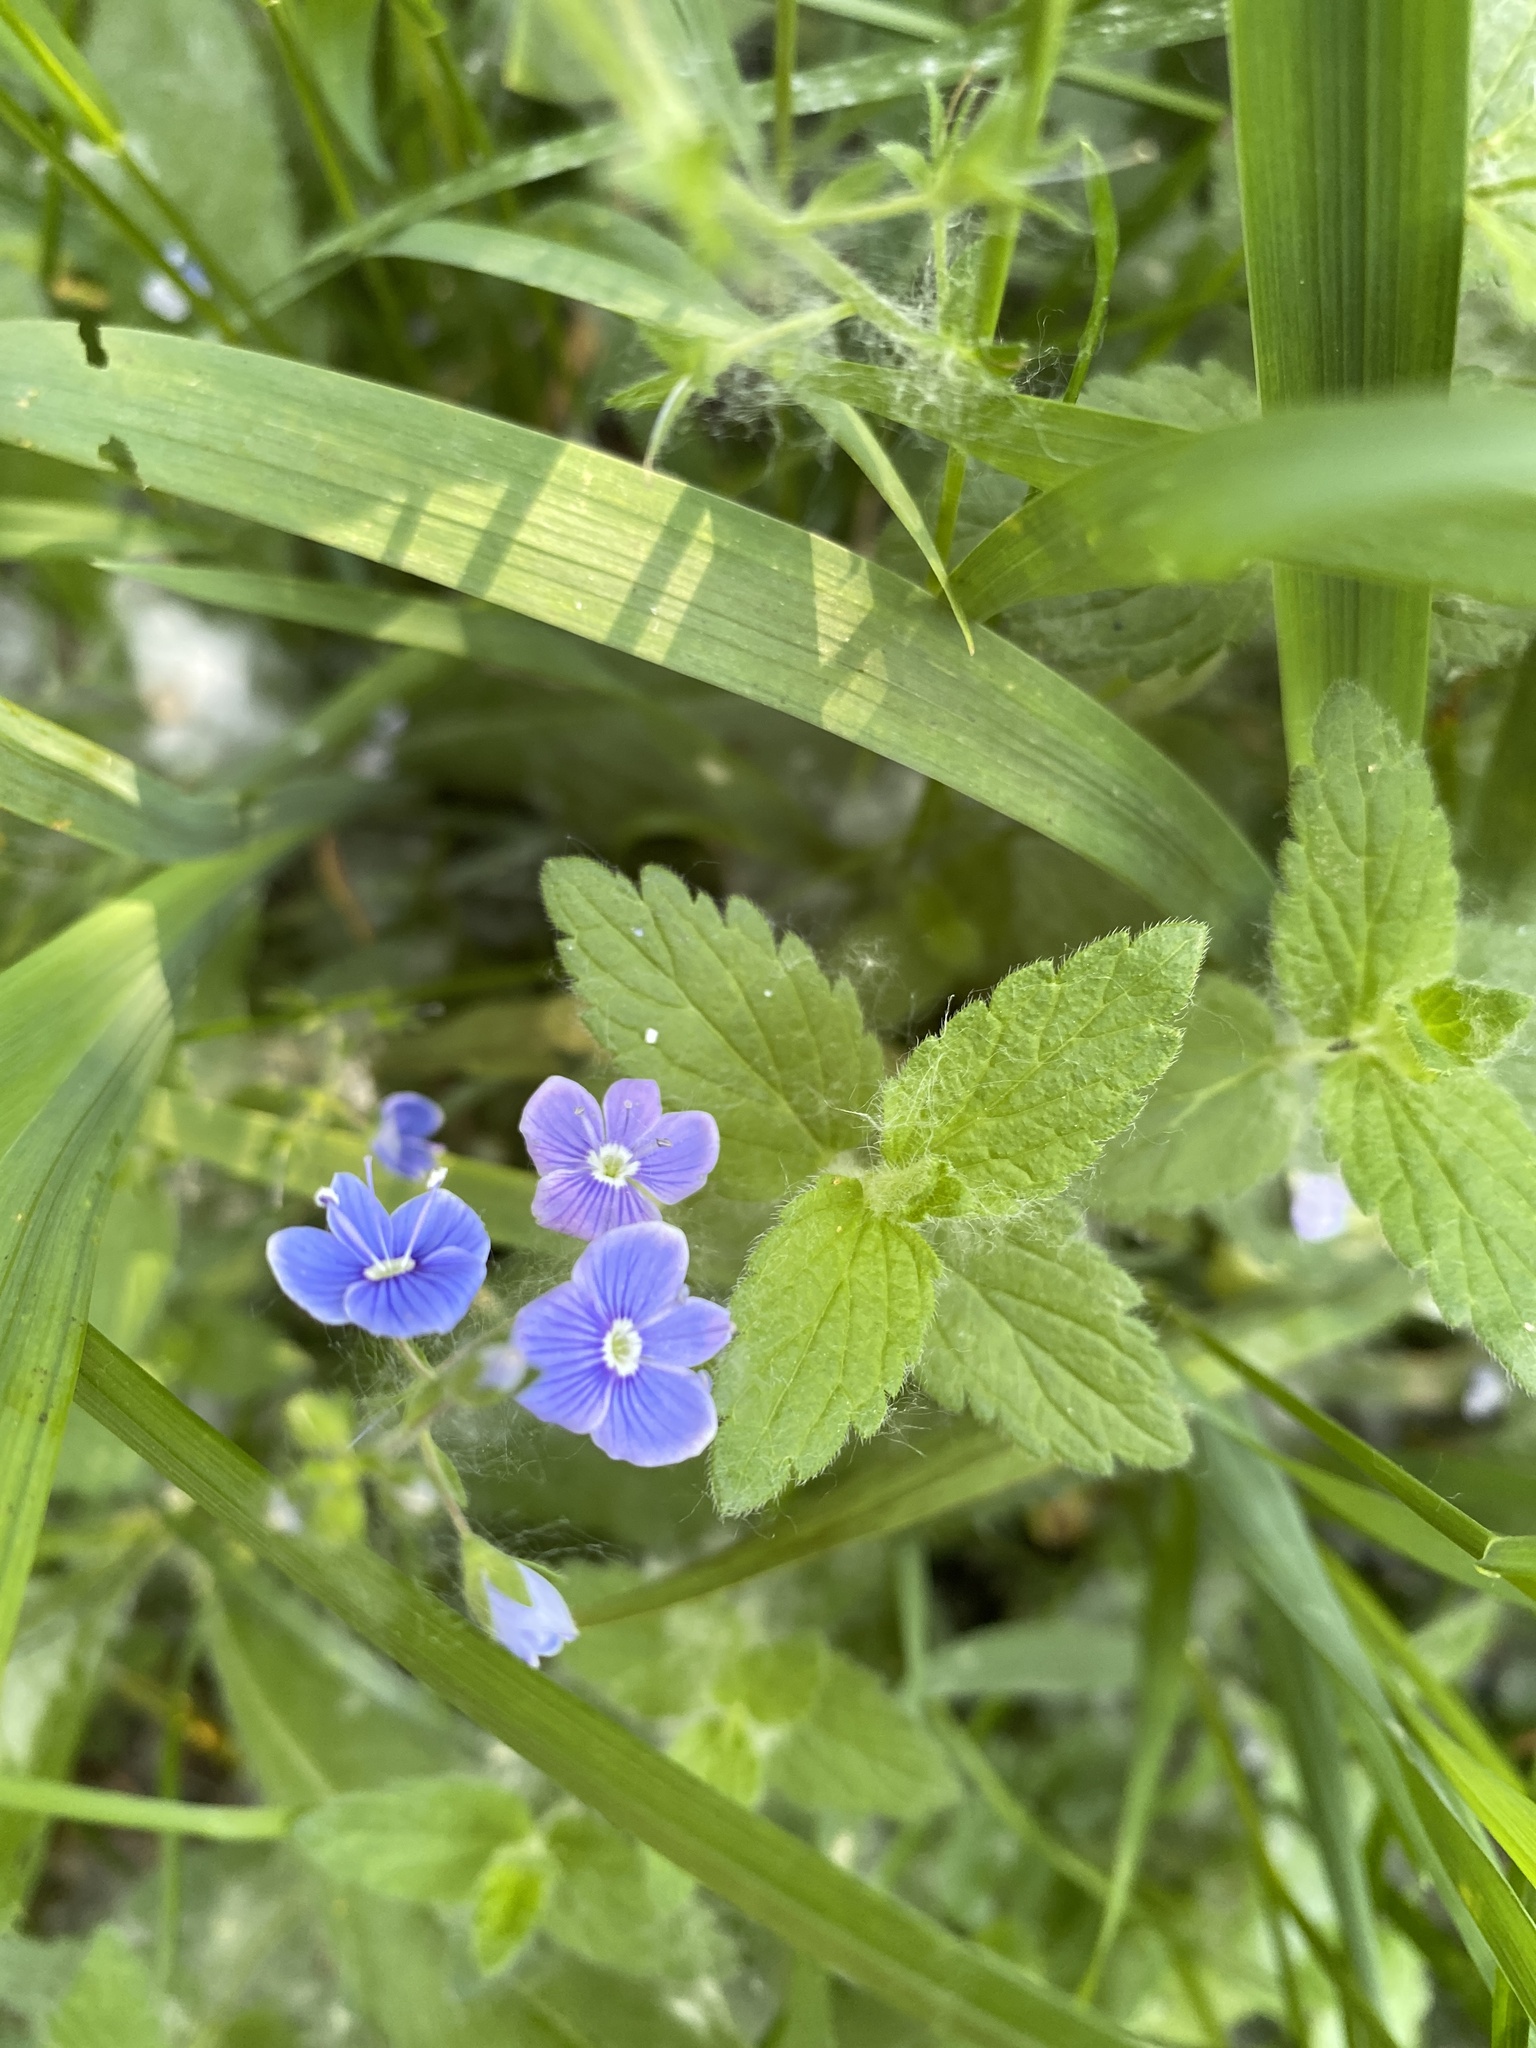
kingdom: Plantae
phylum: Tracheophyta
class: Magnoliopsida
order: Lamiales
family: Plantaginaceae
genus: Veronica
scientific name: Veronica chamaedrys
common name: Germander speedwell
